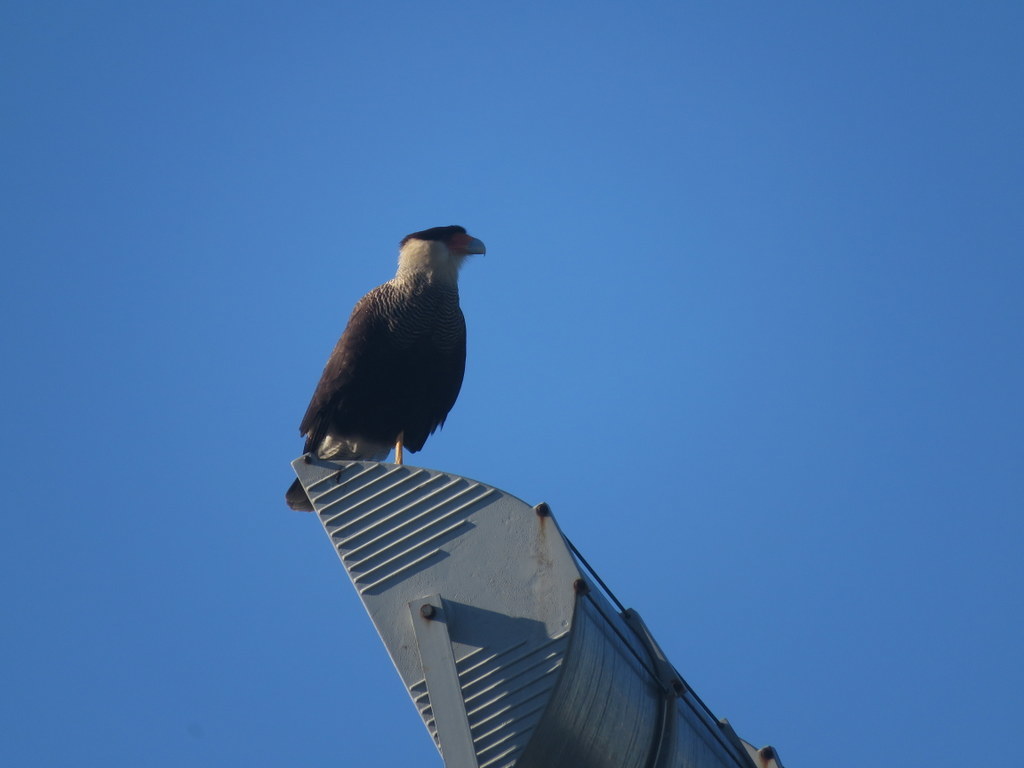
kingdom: Animalia
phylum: Chordata
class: Aves
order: Falconiformes
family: Falconidae
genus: Caracara
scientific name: Caracara plancus
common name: Southern caracara
